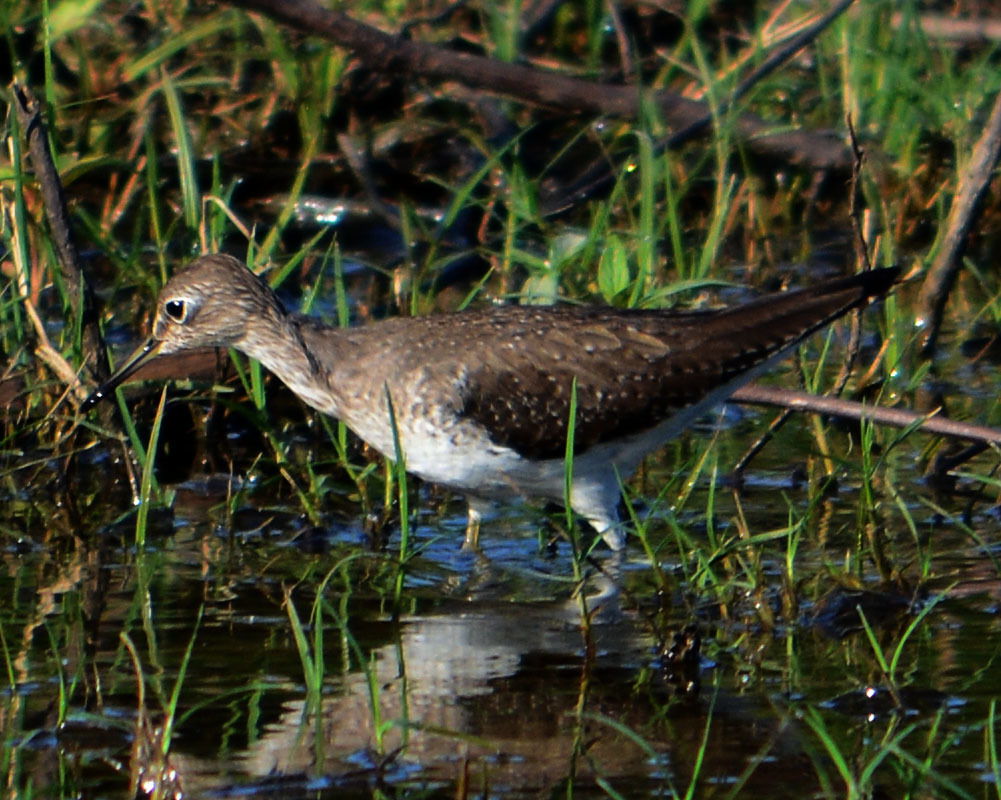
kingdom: Animalia
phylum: Chordata
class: Aves
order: Charadriiformes
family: Scolopacidae
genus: Tringa
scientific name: Tringa solitaria
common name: Solitary sandpiper
